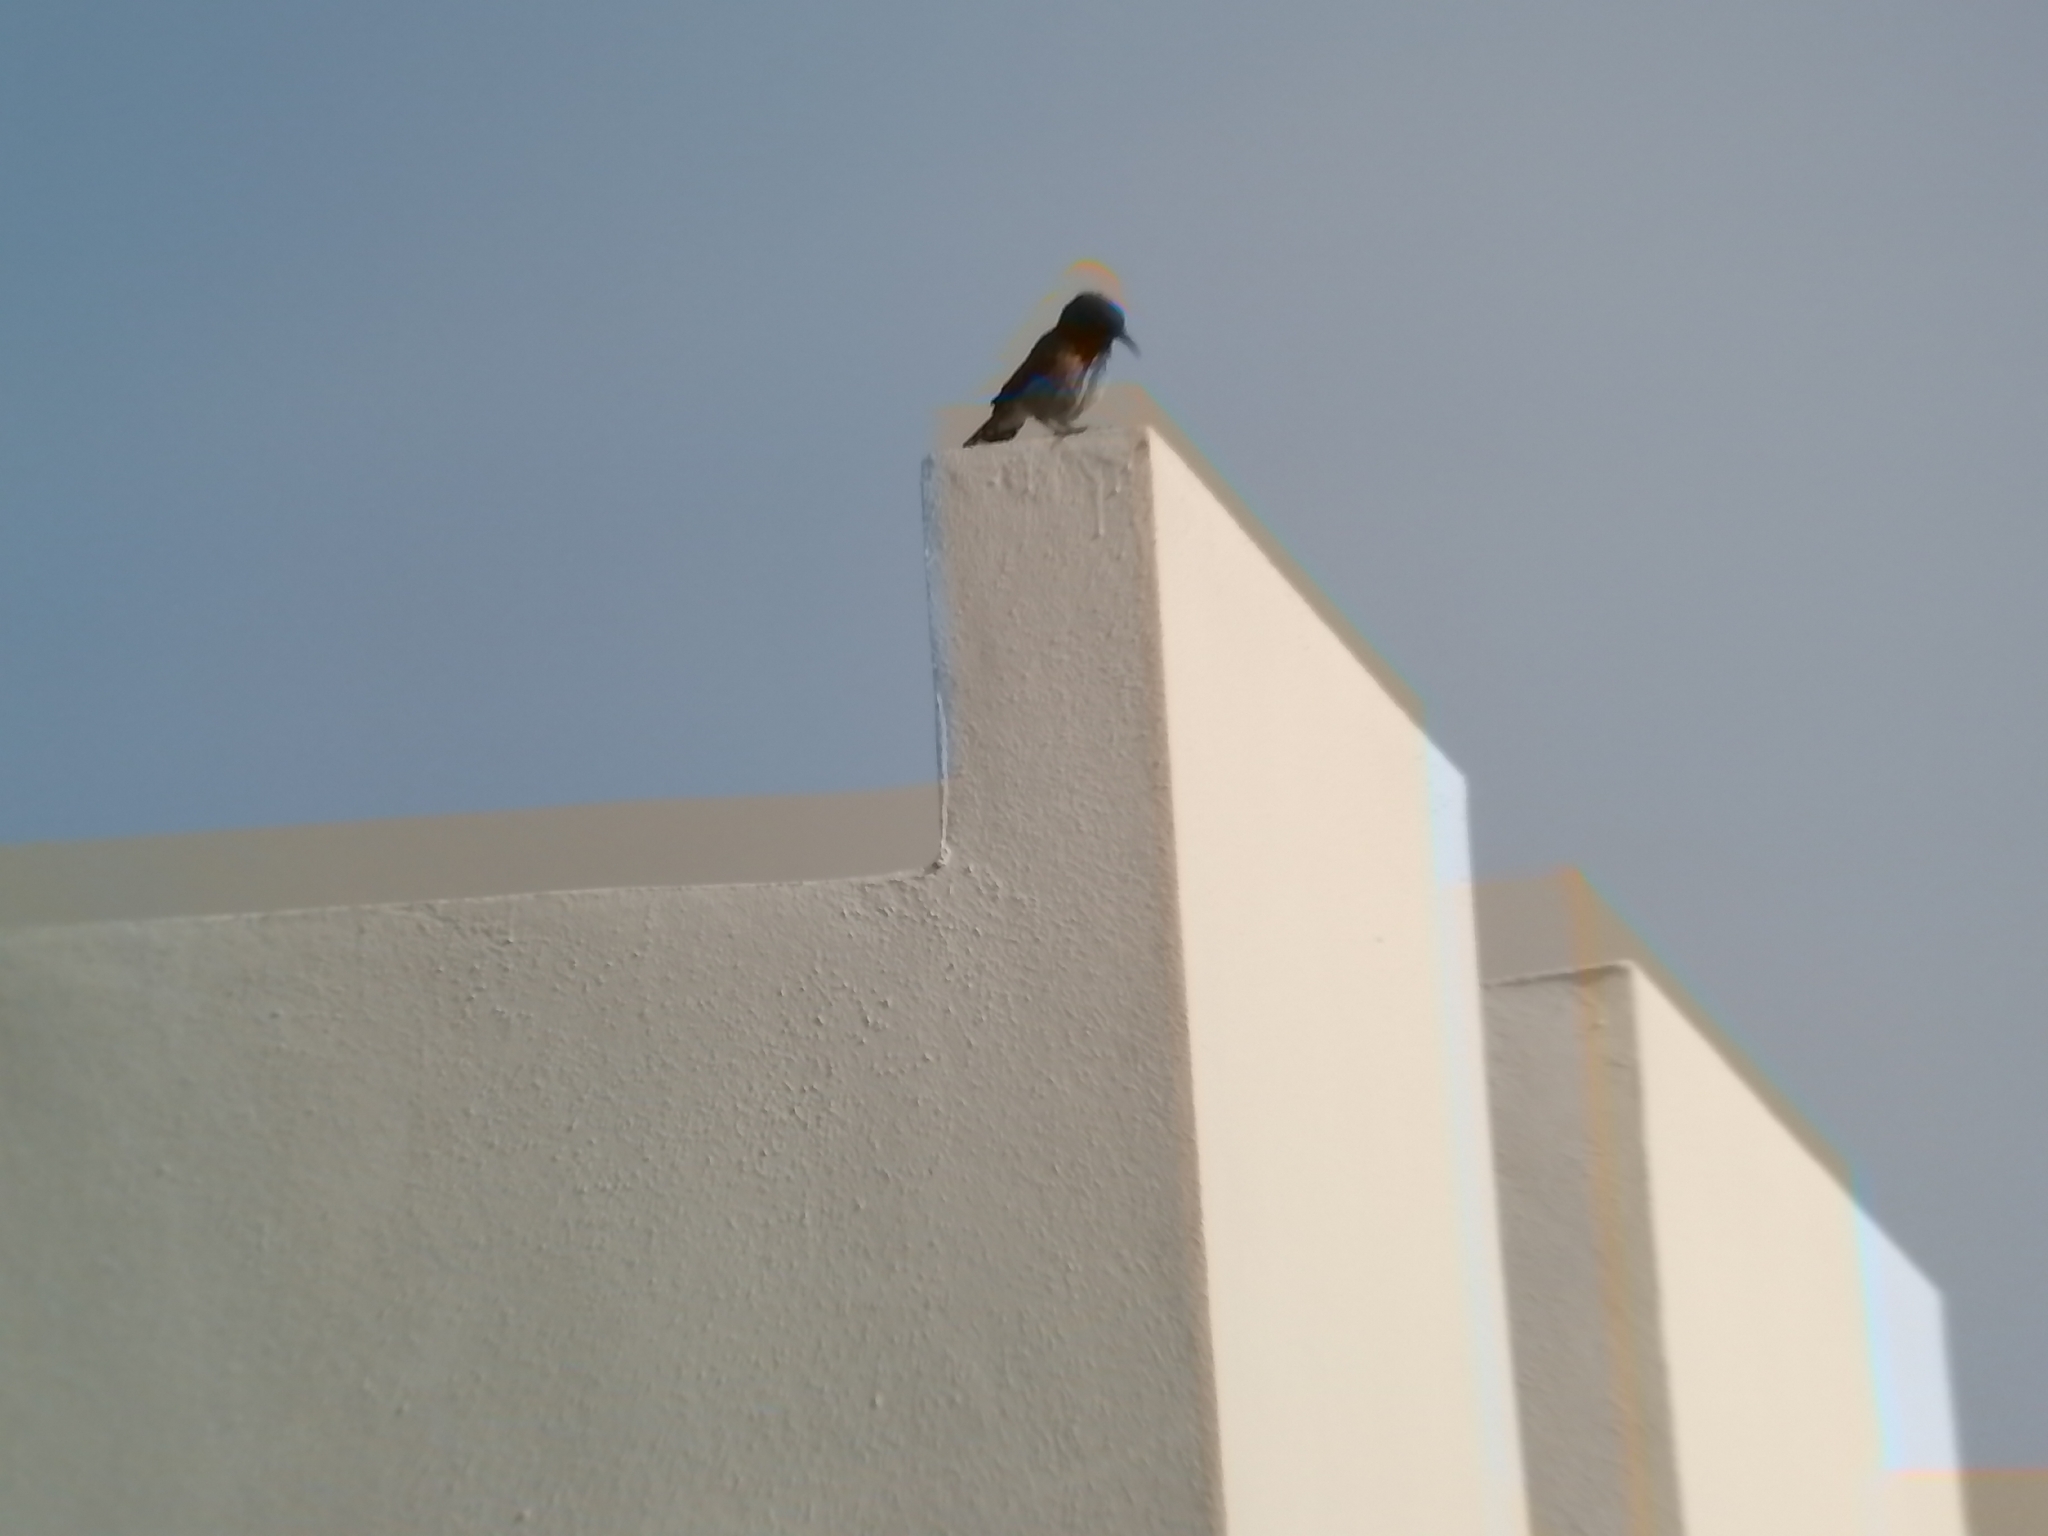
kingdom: Animalia
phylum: Chordata
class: Aves
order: Passeriformes
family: Mimidae
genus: Toxostoma
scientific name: Toxostoma curvirostre
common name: Curve-billed thrasher
